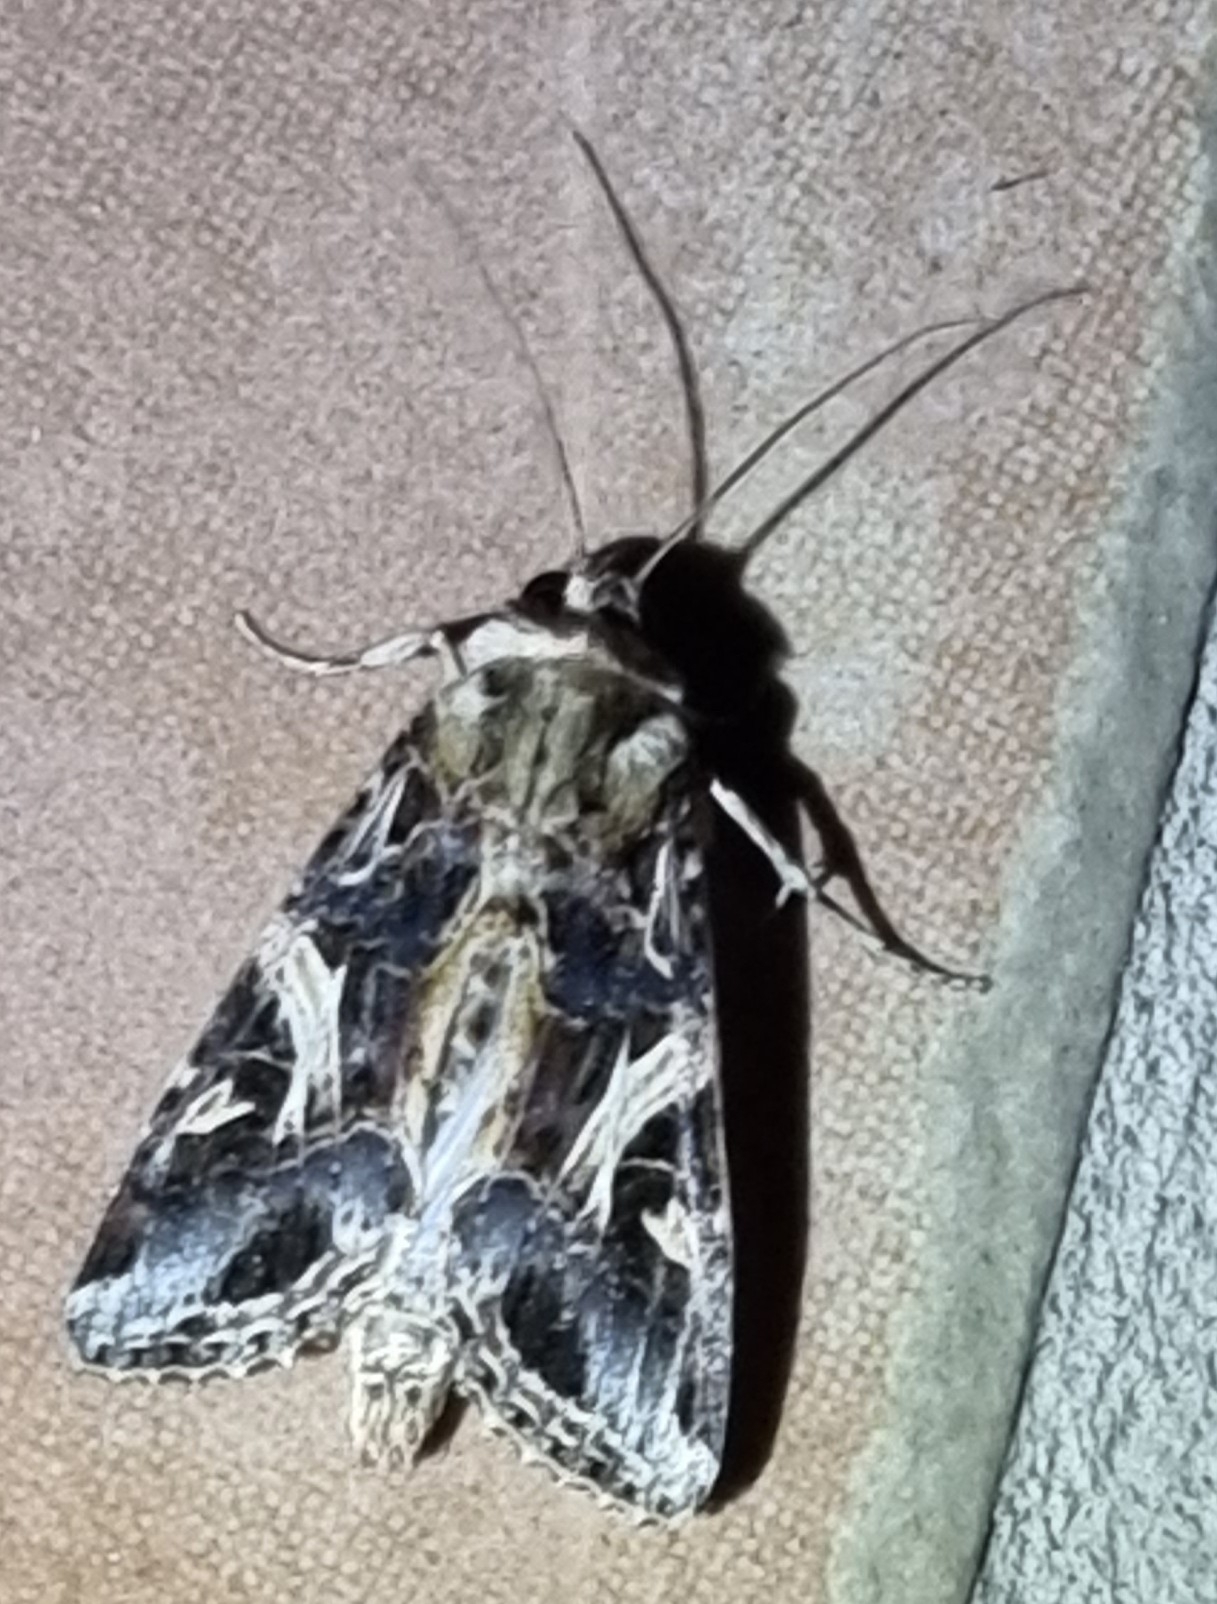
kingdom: Animalia
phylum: Arthropoda
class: Insecta
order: Lepidoptera
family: Noctuidae
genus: Spodoptera
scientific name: Spodoptera litura
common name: Asian cotton leafworm
